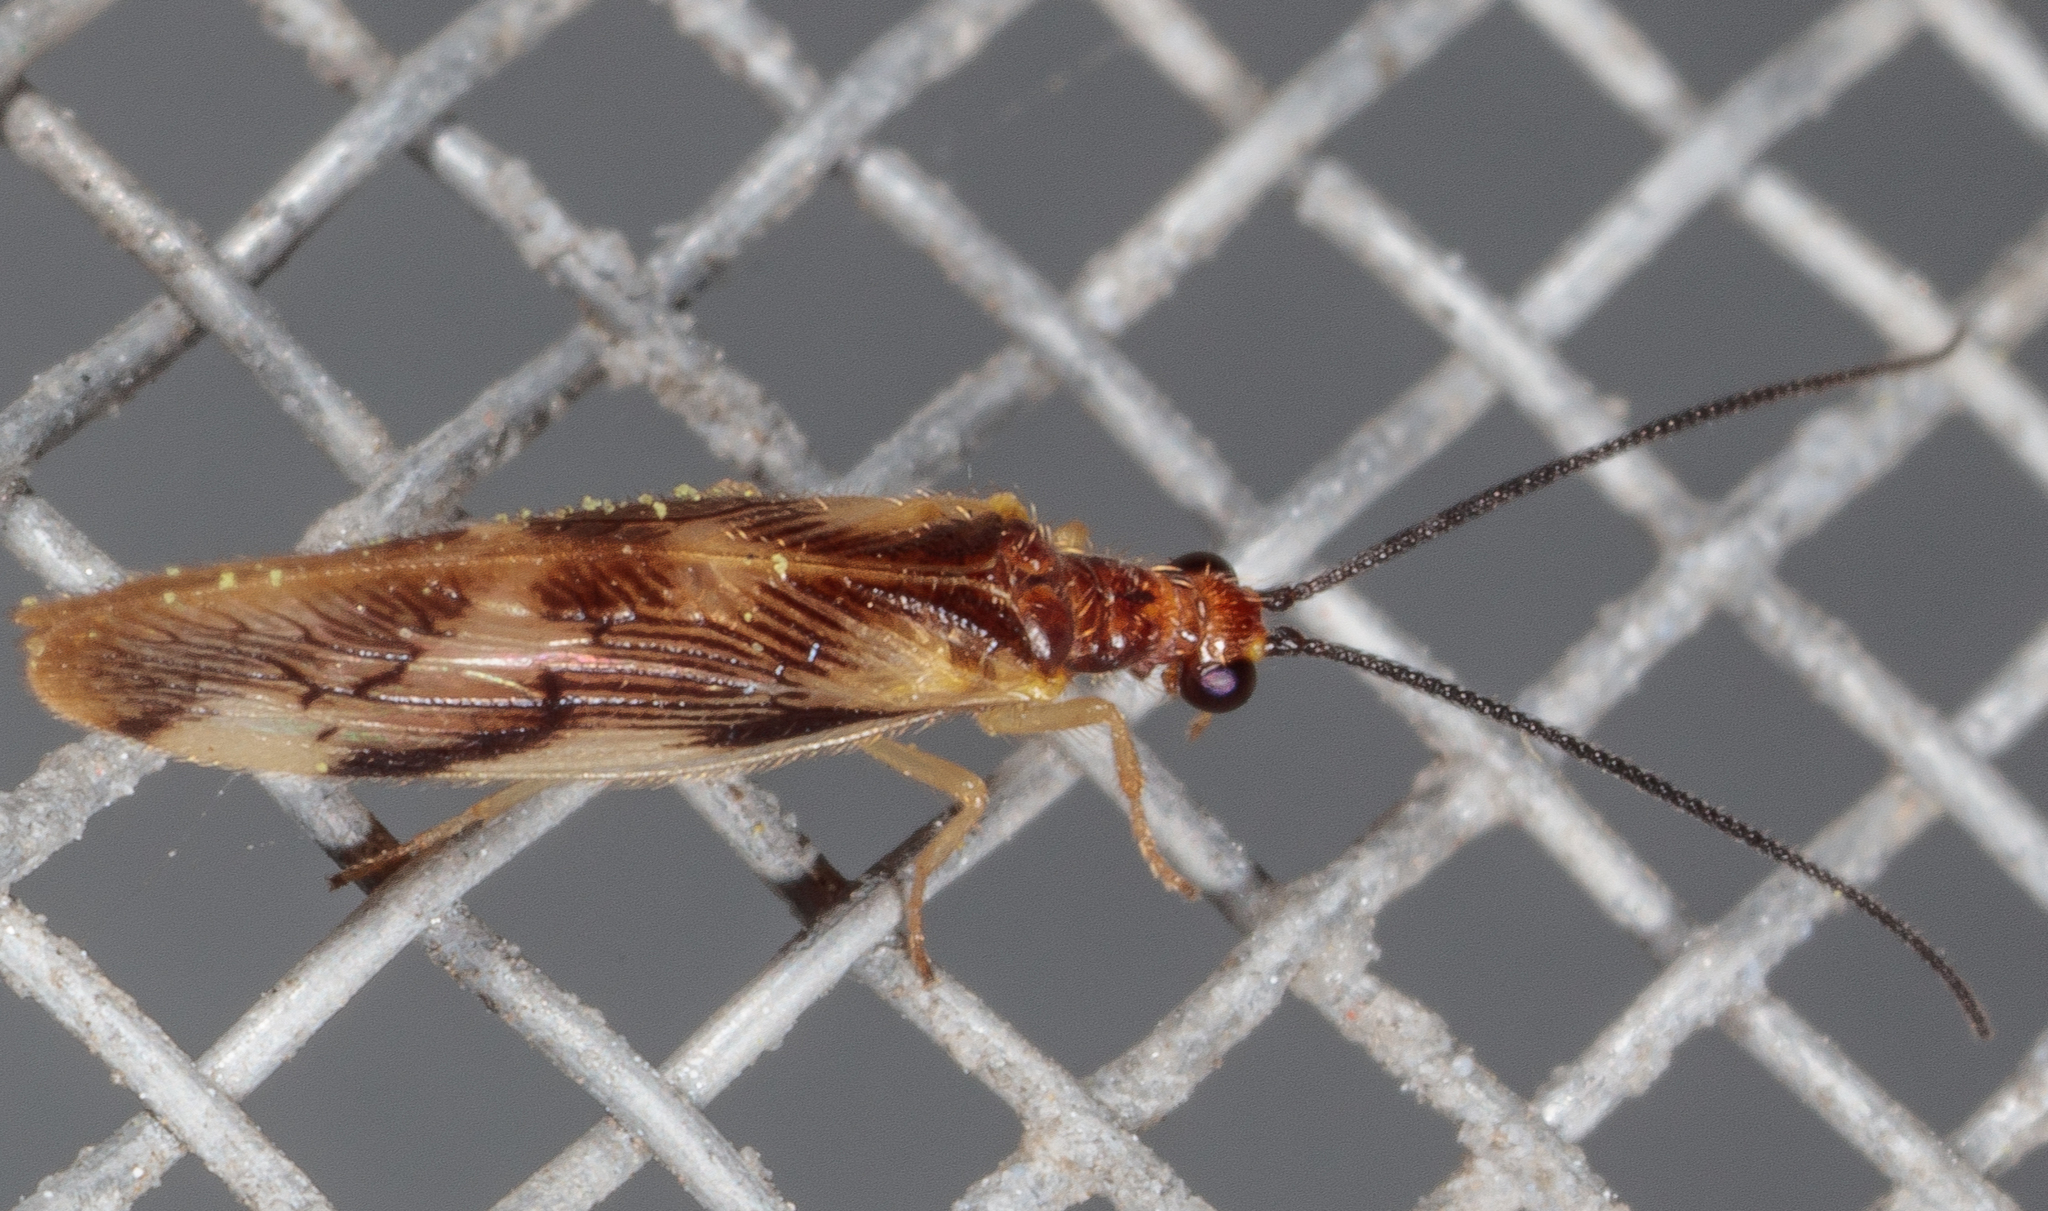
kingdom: Animalia
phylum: Arthropoda
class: Insecta
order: Neuroptera
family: Sisyridae
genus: Climacia
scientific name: Climacia areolaris
